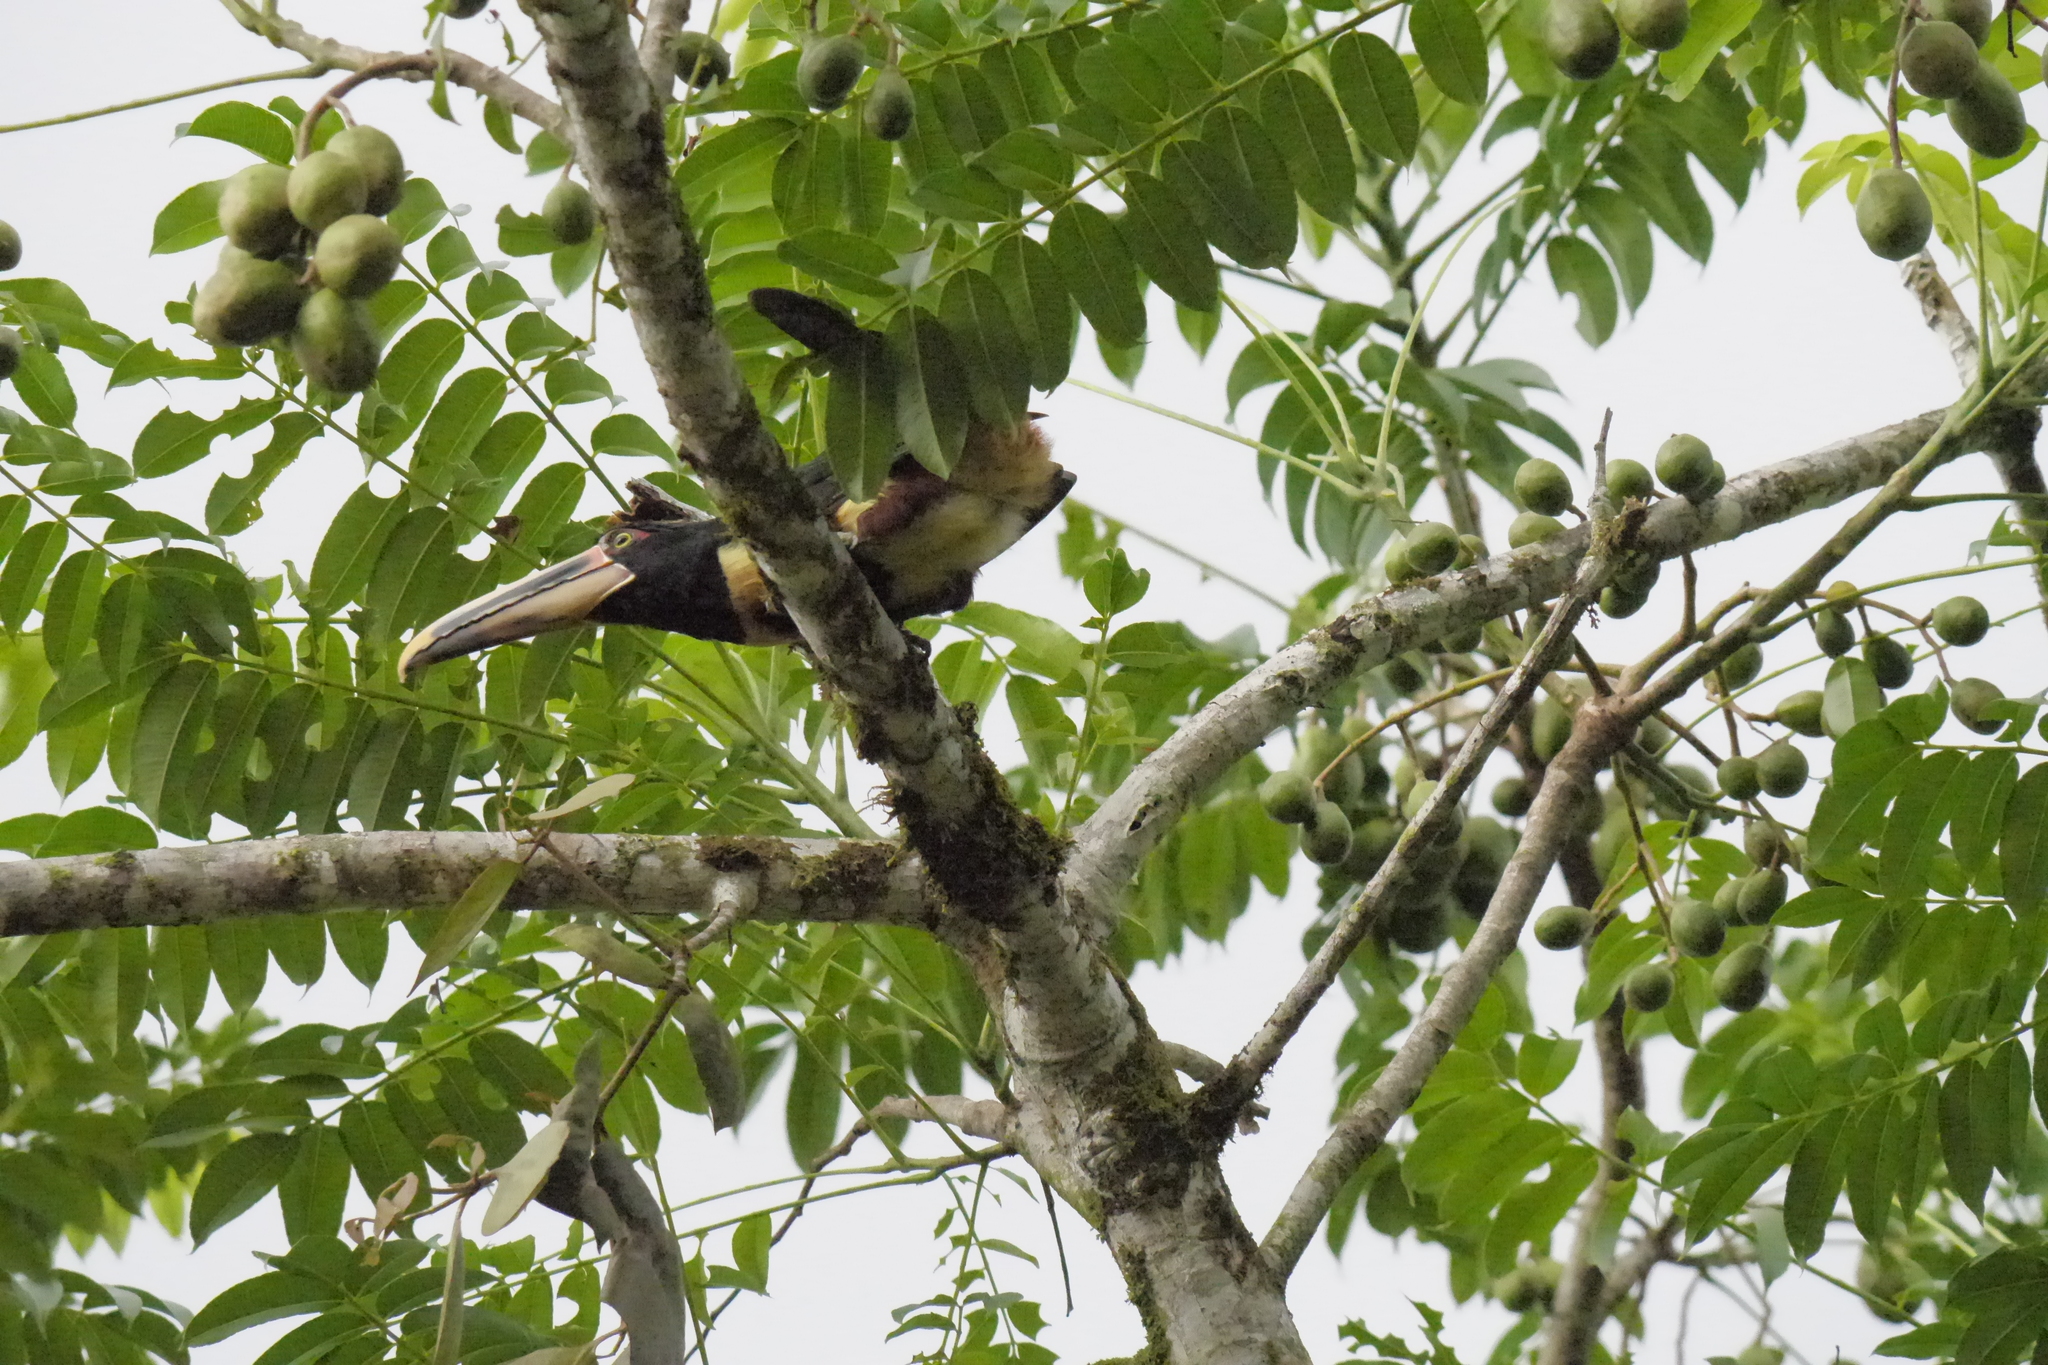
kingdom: Animalia
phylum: Chordata
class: Aves
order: Piciformes
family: Ramphastidae
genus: Pteroglossus
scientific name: Pteroglossus torquatus
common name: Collared aracari
